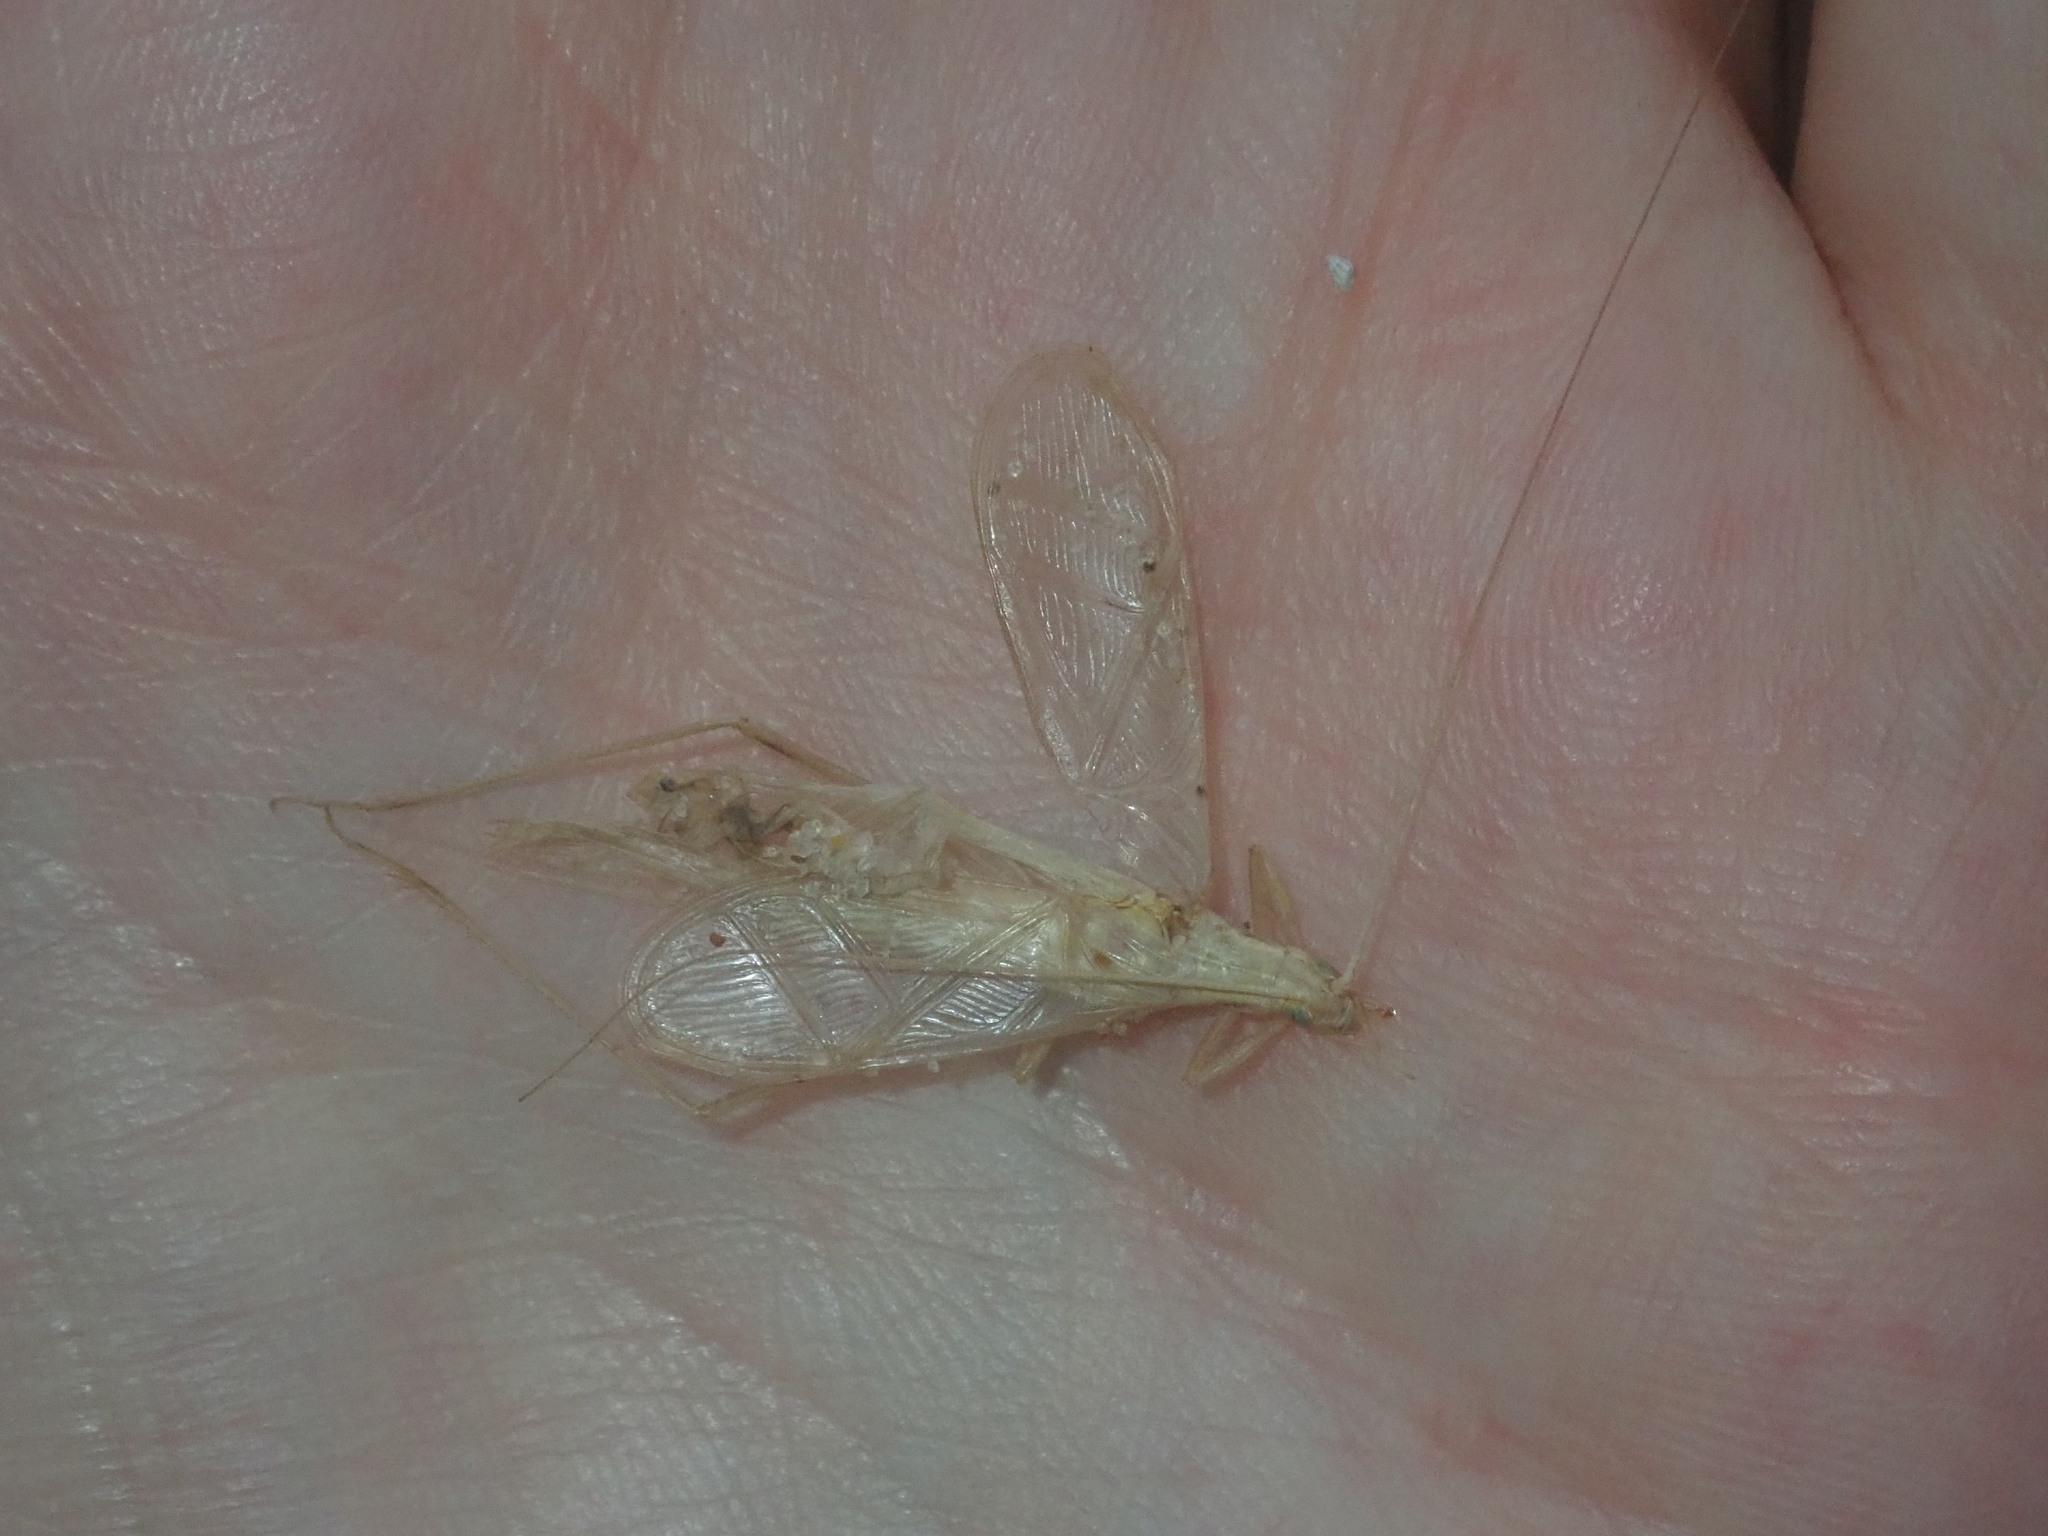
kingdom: Animalia
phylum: Arthropoda
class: Insecta
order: Orthoptera
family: Gryllidae
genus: Oecanthus
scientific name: Oecanthus angustus
